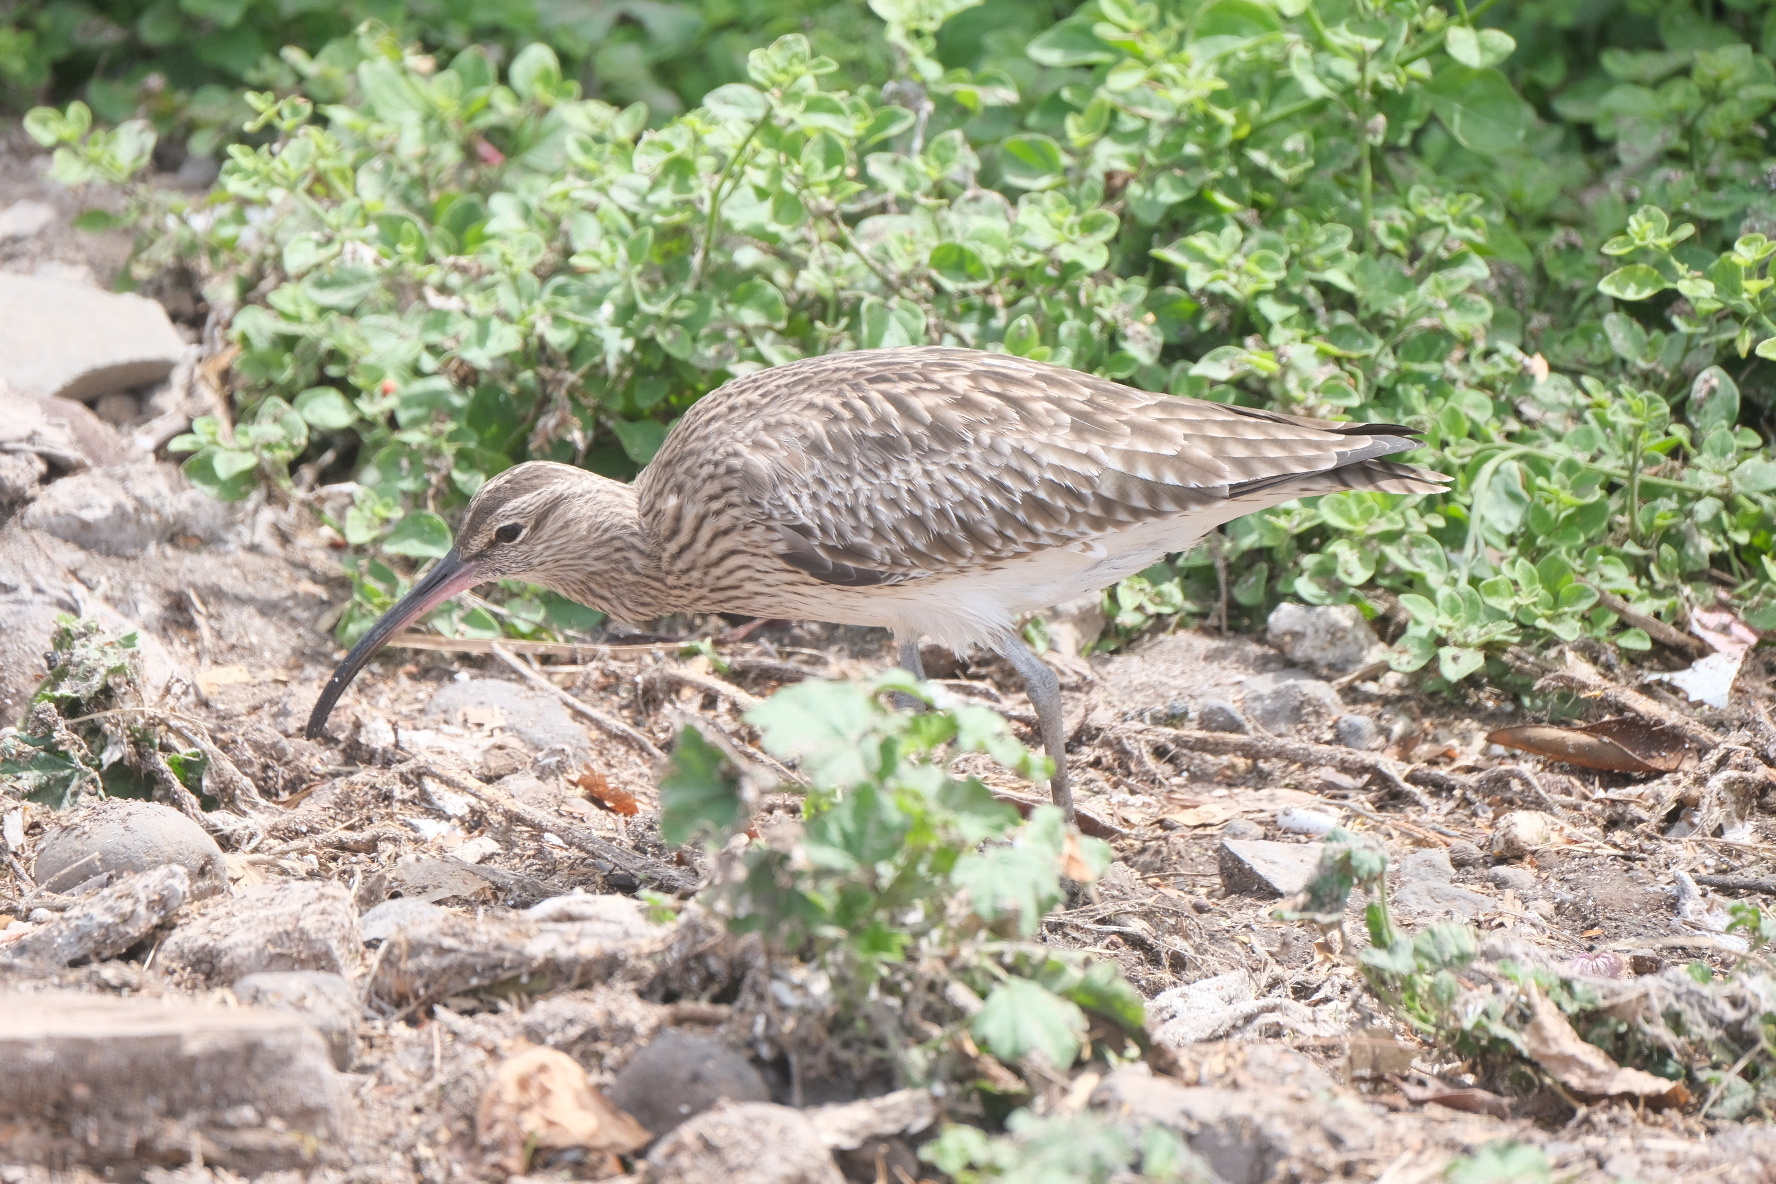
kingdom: Animalia
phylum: Chordata
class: Aves
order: Charadriiformes
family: Scolopacidae
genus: Numenius
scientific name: Numenius phaeopus
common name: Whimbrel
